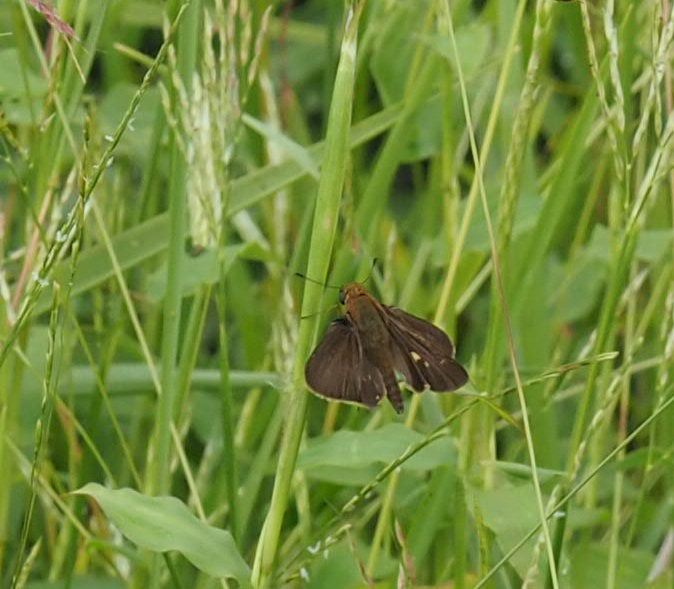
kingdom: Animalia
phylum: Arthropoda
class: Insecta
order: Lepidoptera
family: Hesperiidae
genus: Panoquina
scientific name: Panoquina ocola
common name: Ocola skipper
